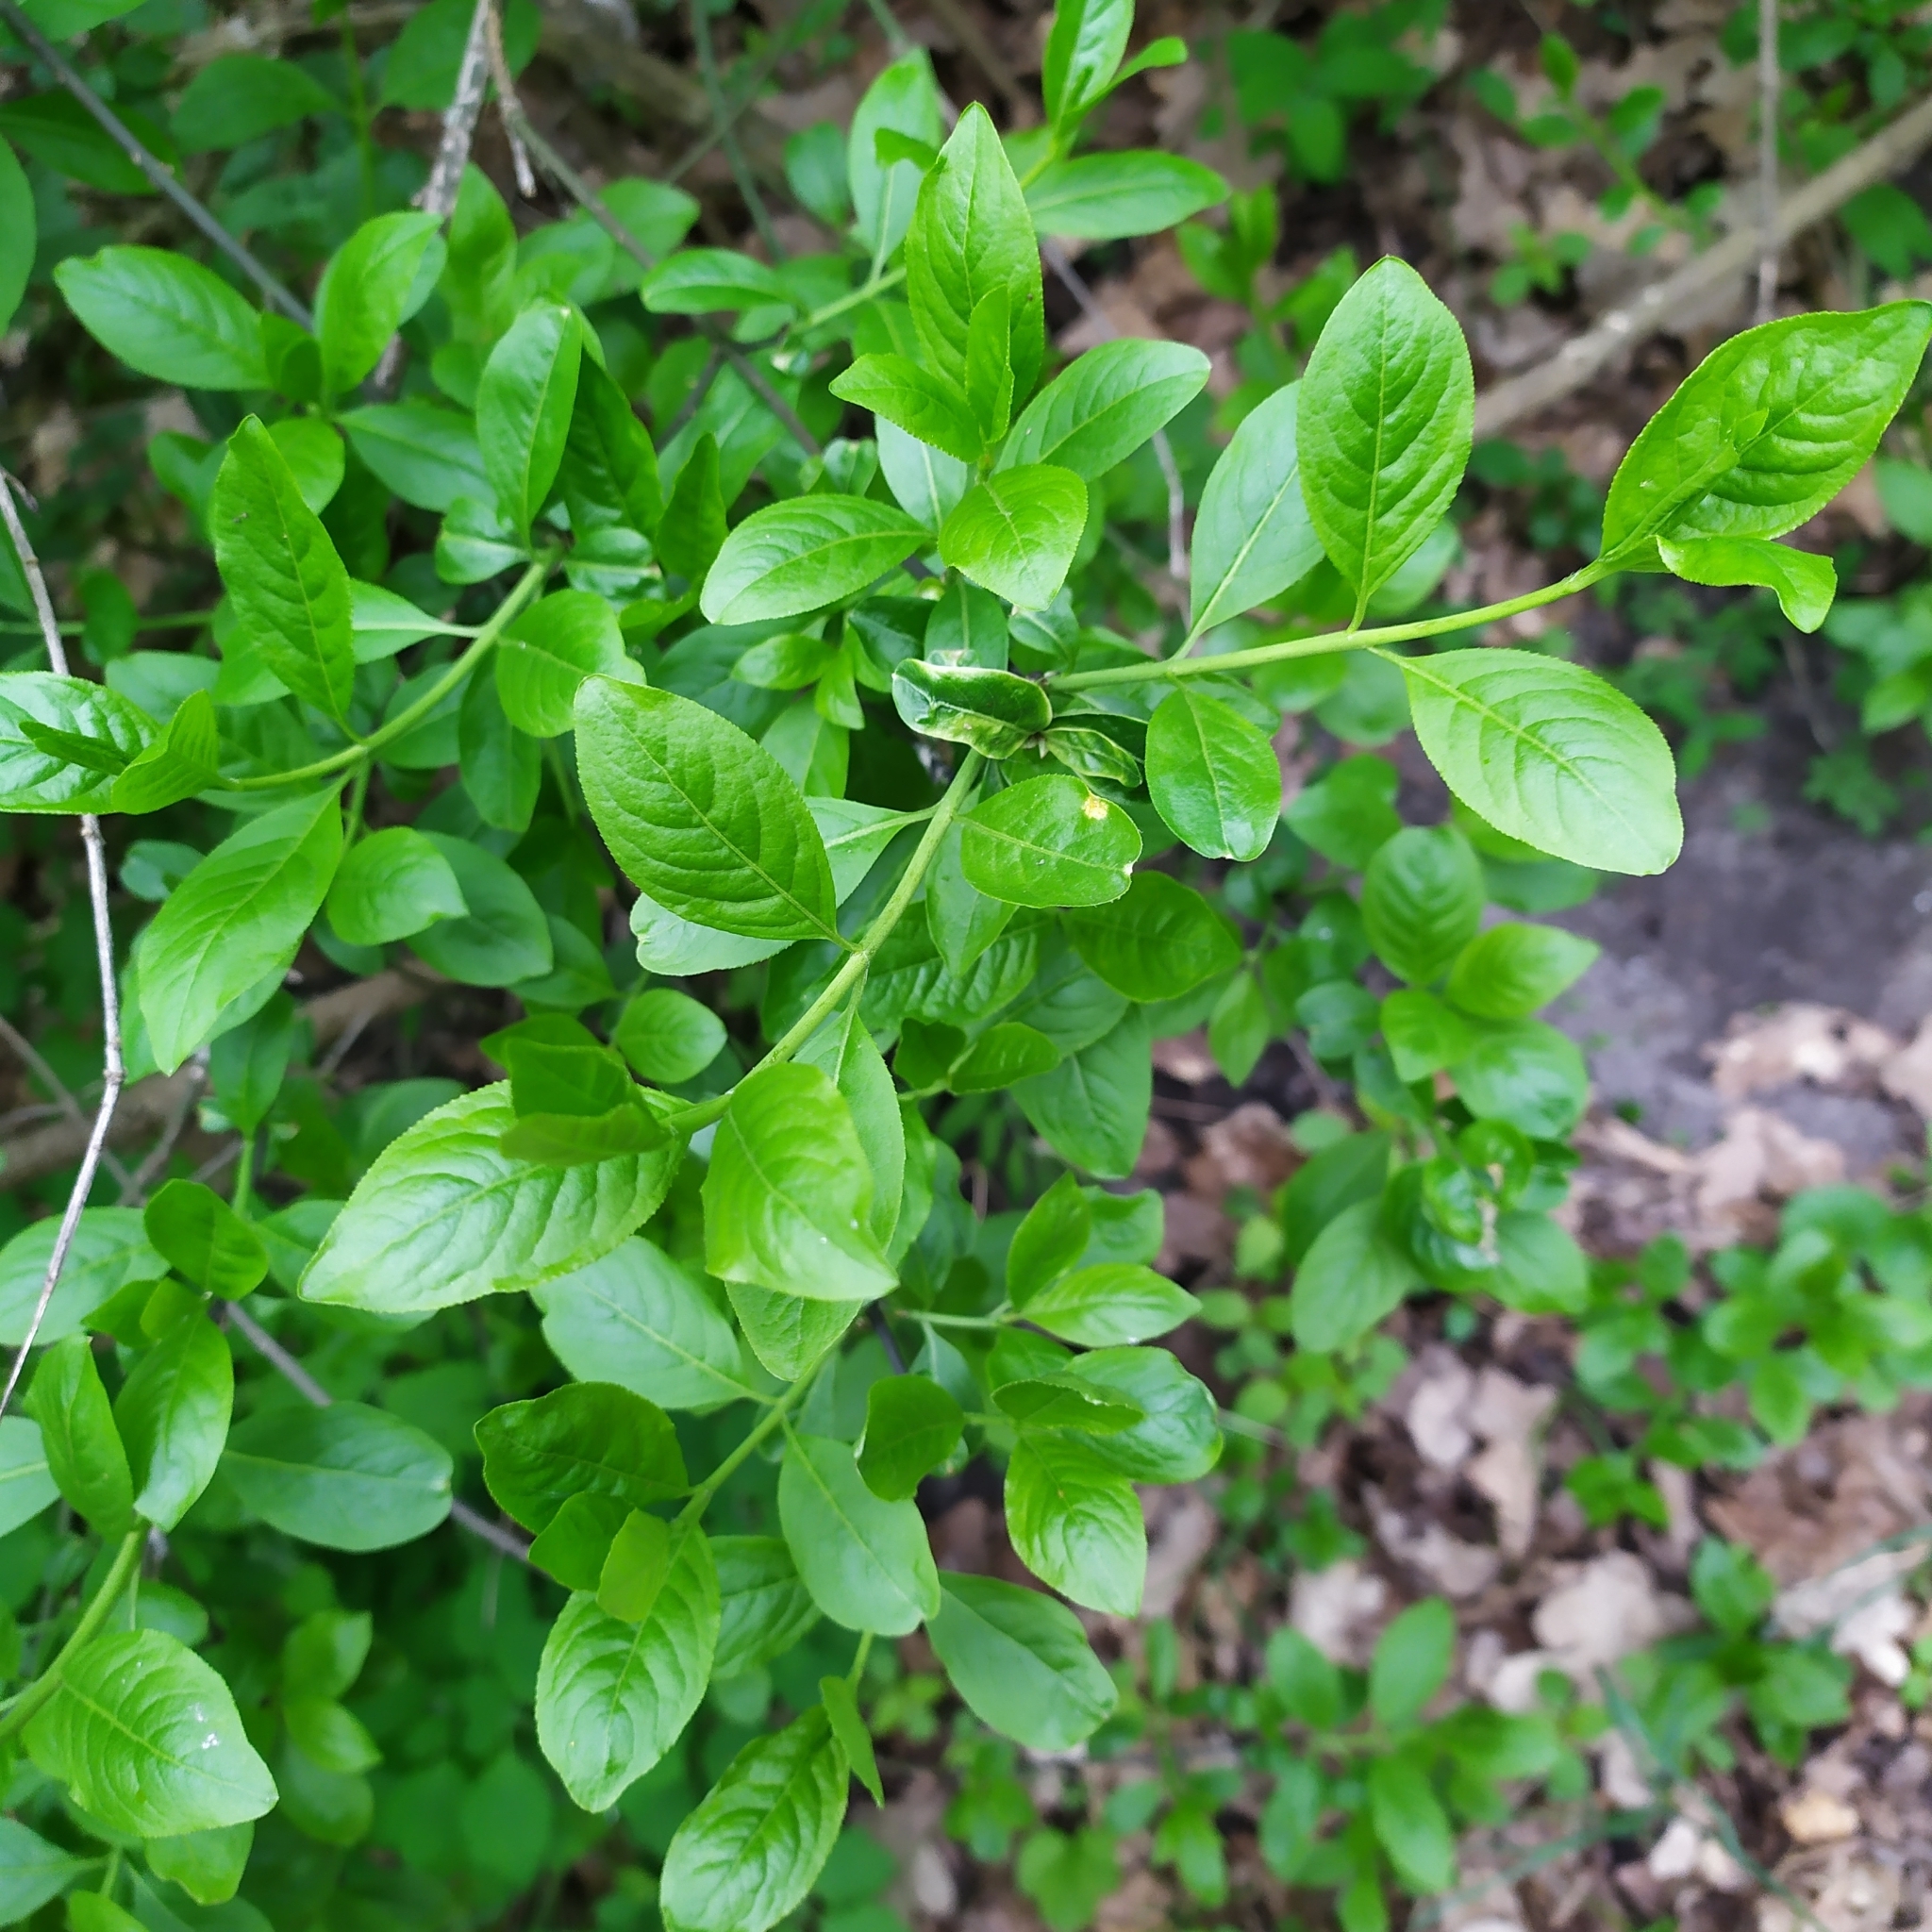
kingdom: Plantae
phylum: Tracheophyta
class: Magnoliopsida
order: Celastrales
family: Celastraceae
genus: Euonymus
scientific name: Euonymus europaeus
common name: Spindle
